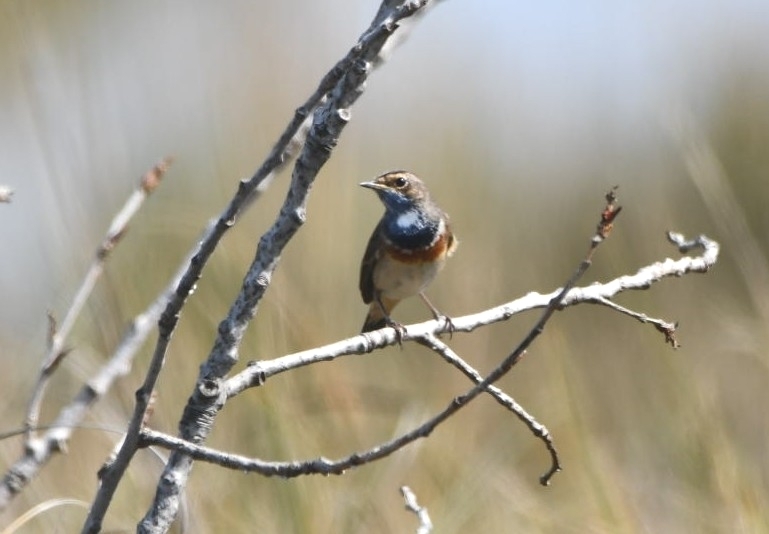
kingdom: Animalia
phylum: Chordata
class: Aves
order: Passeriformes
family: Muscicapidae
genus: Luscinia
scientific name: Luscinia svecica
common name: Bluethroat
